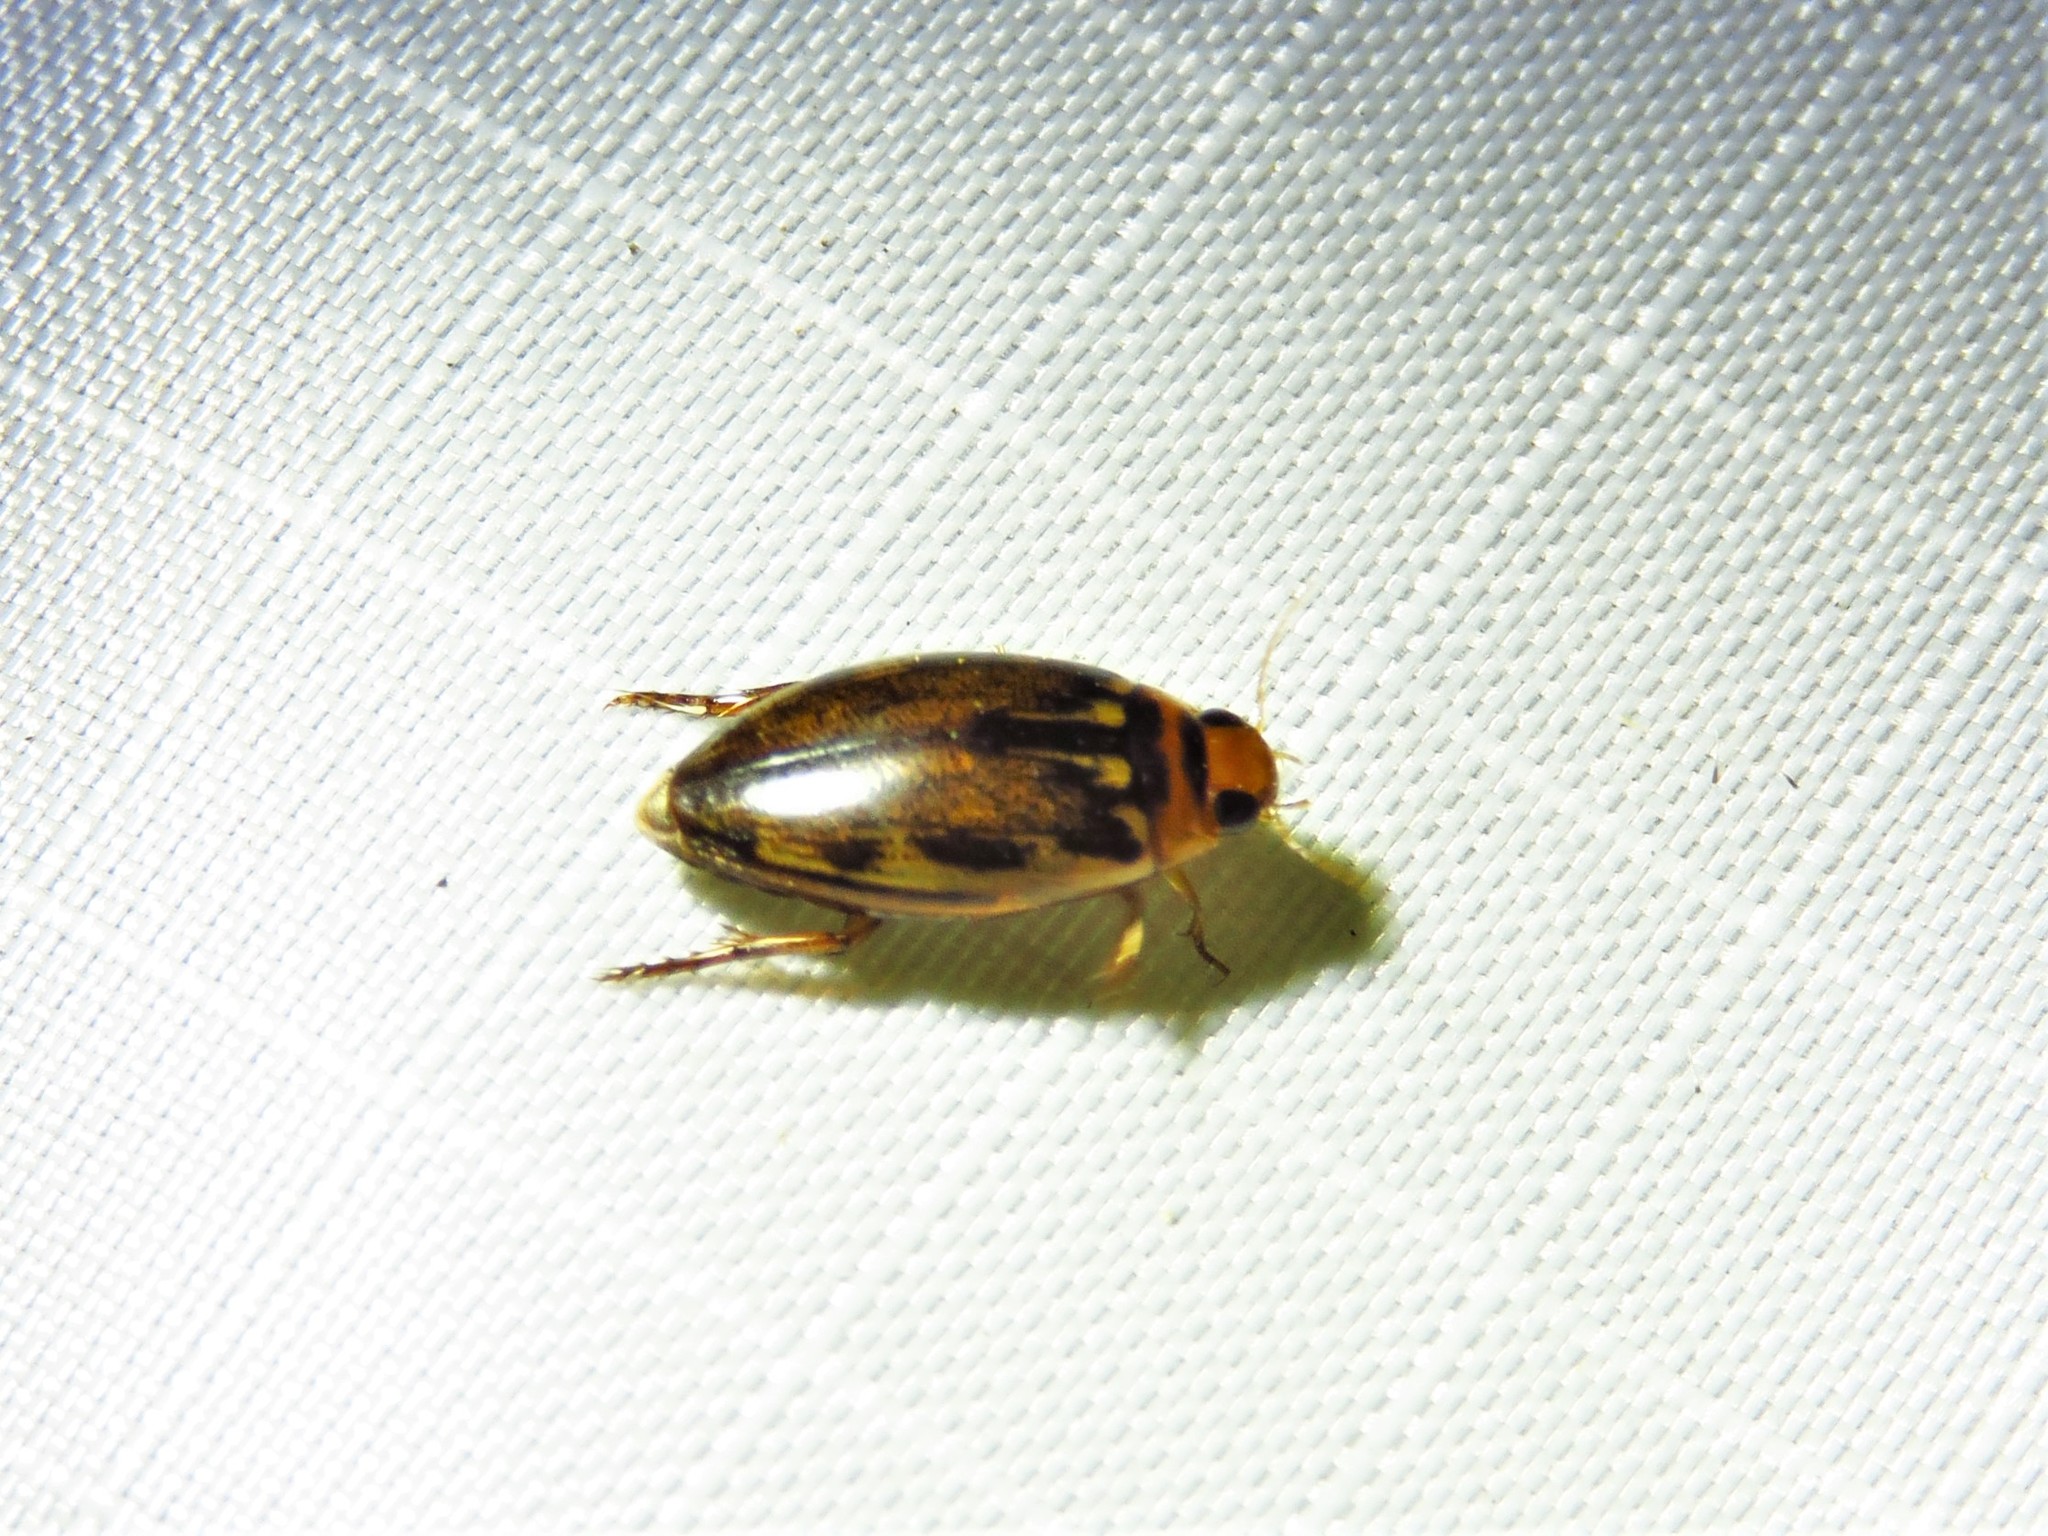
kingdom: Animalia
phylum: Arthropoda
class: Insecta
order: Coleoptera
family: Dytiscidae
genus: Coptotomus
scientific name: Coptotomus longulus
